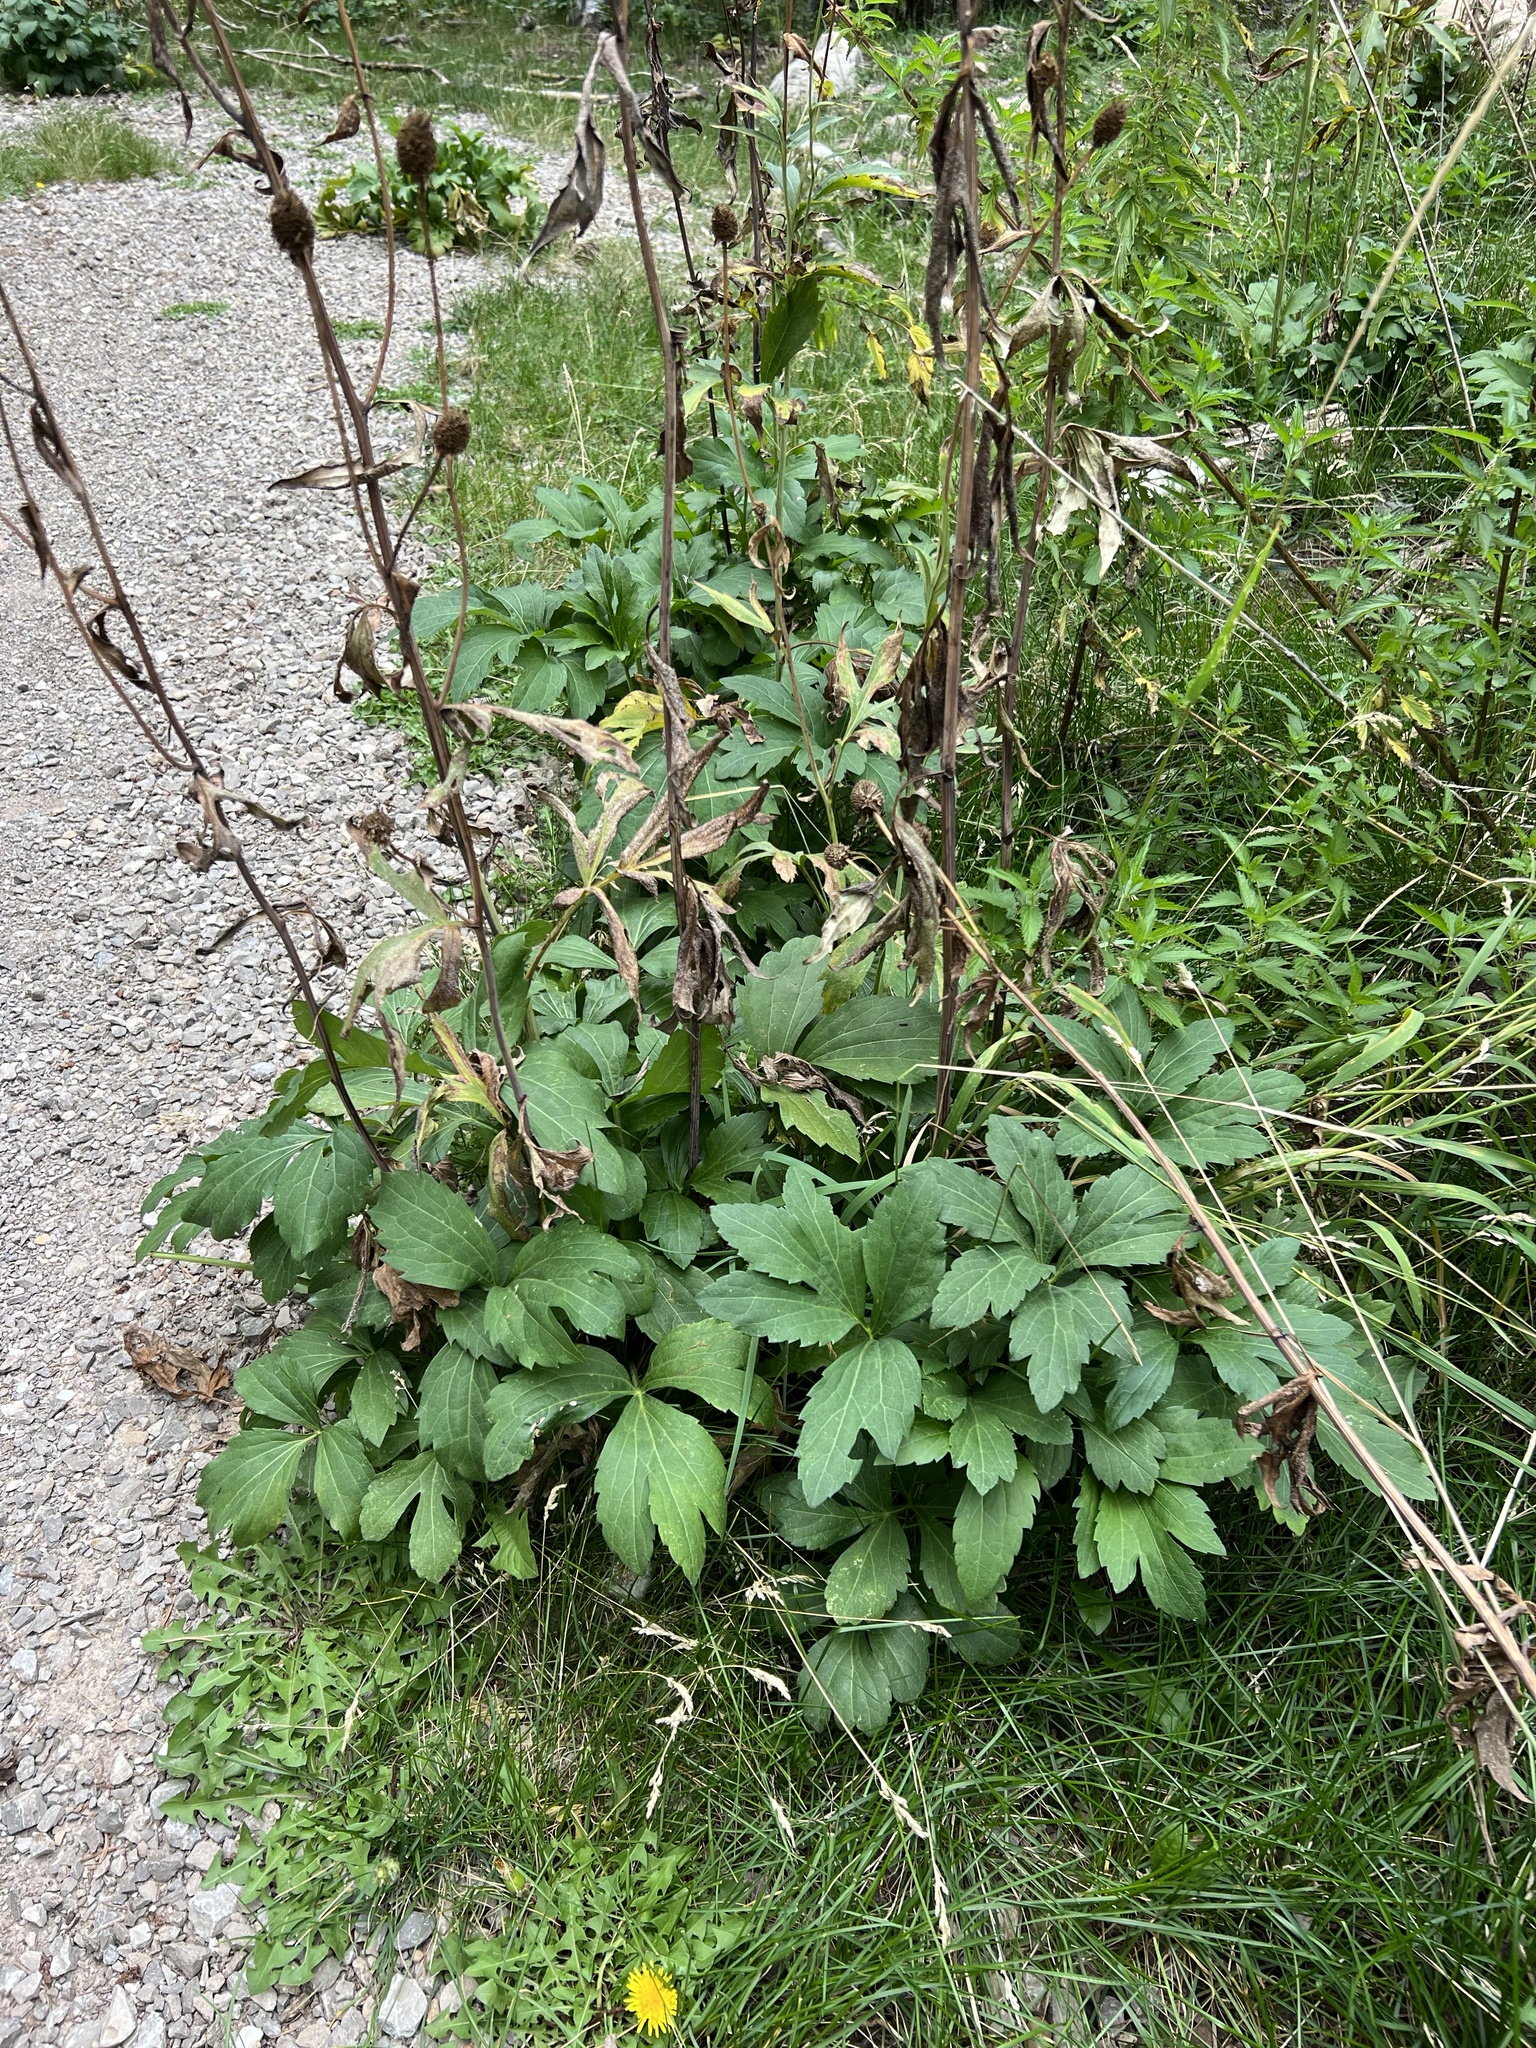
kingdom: Plantae
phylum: Tracheophyta
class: Magnoliopsida
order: Asterales
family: Asteraceae
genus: Rudbeckia
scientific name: Rudbeckia laciniata
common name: Coneflower
